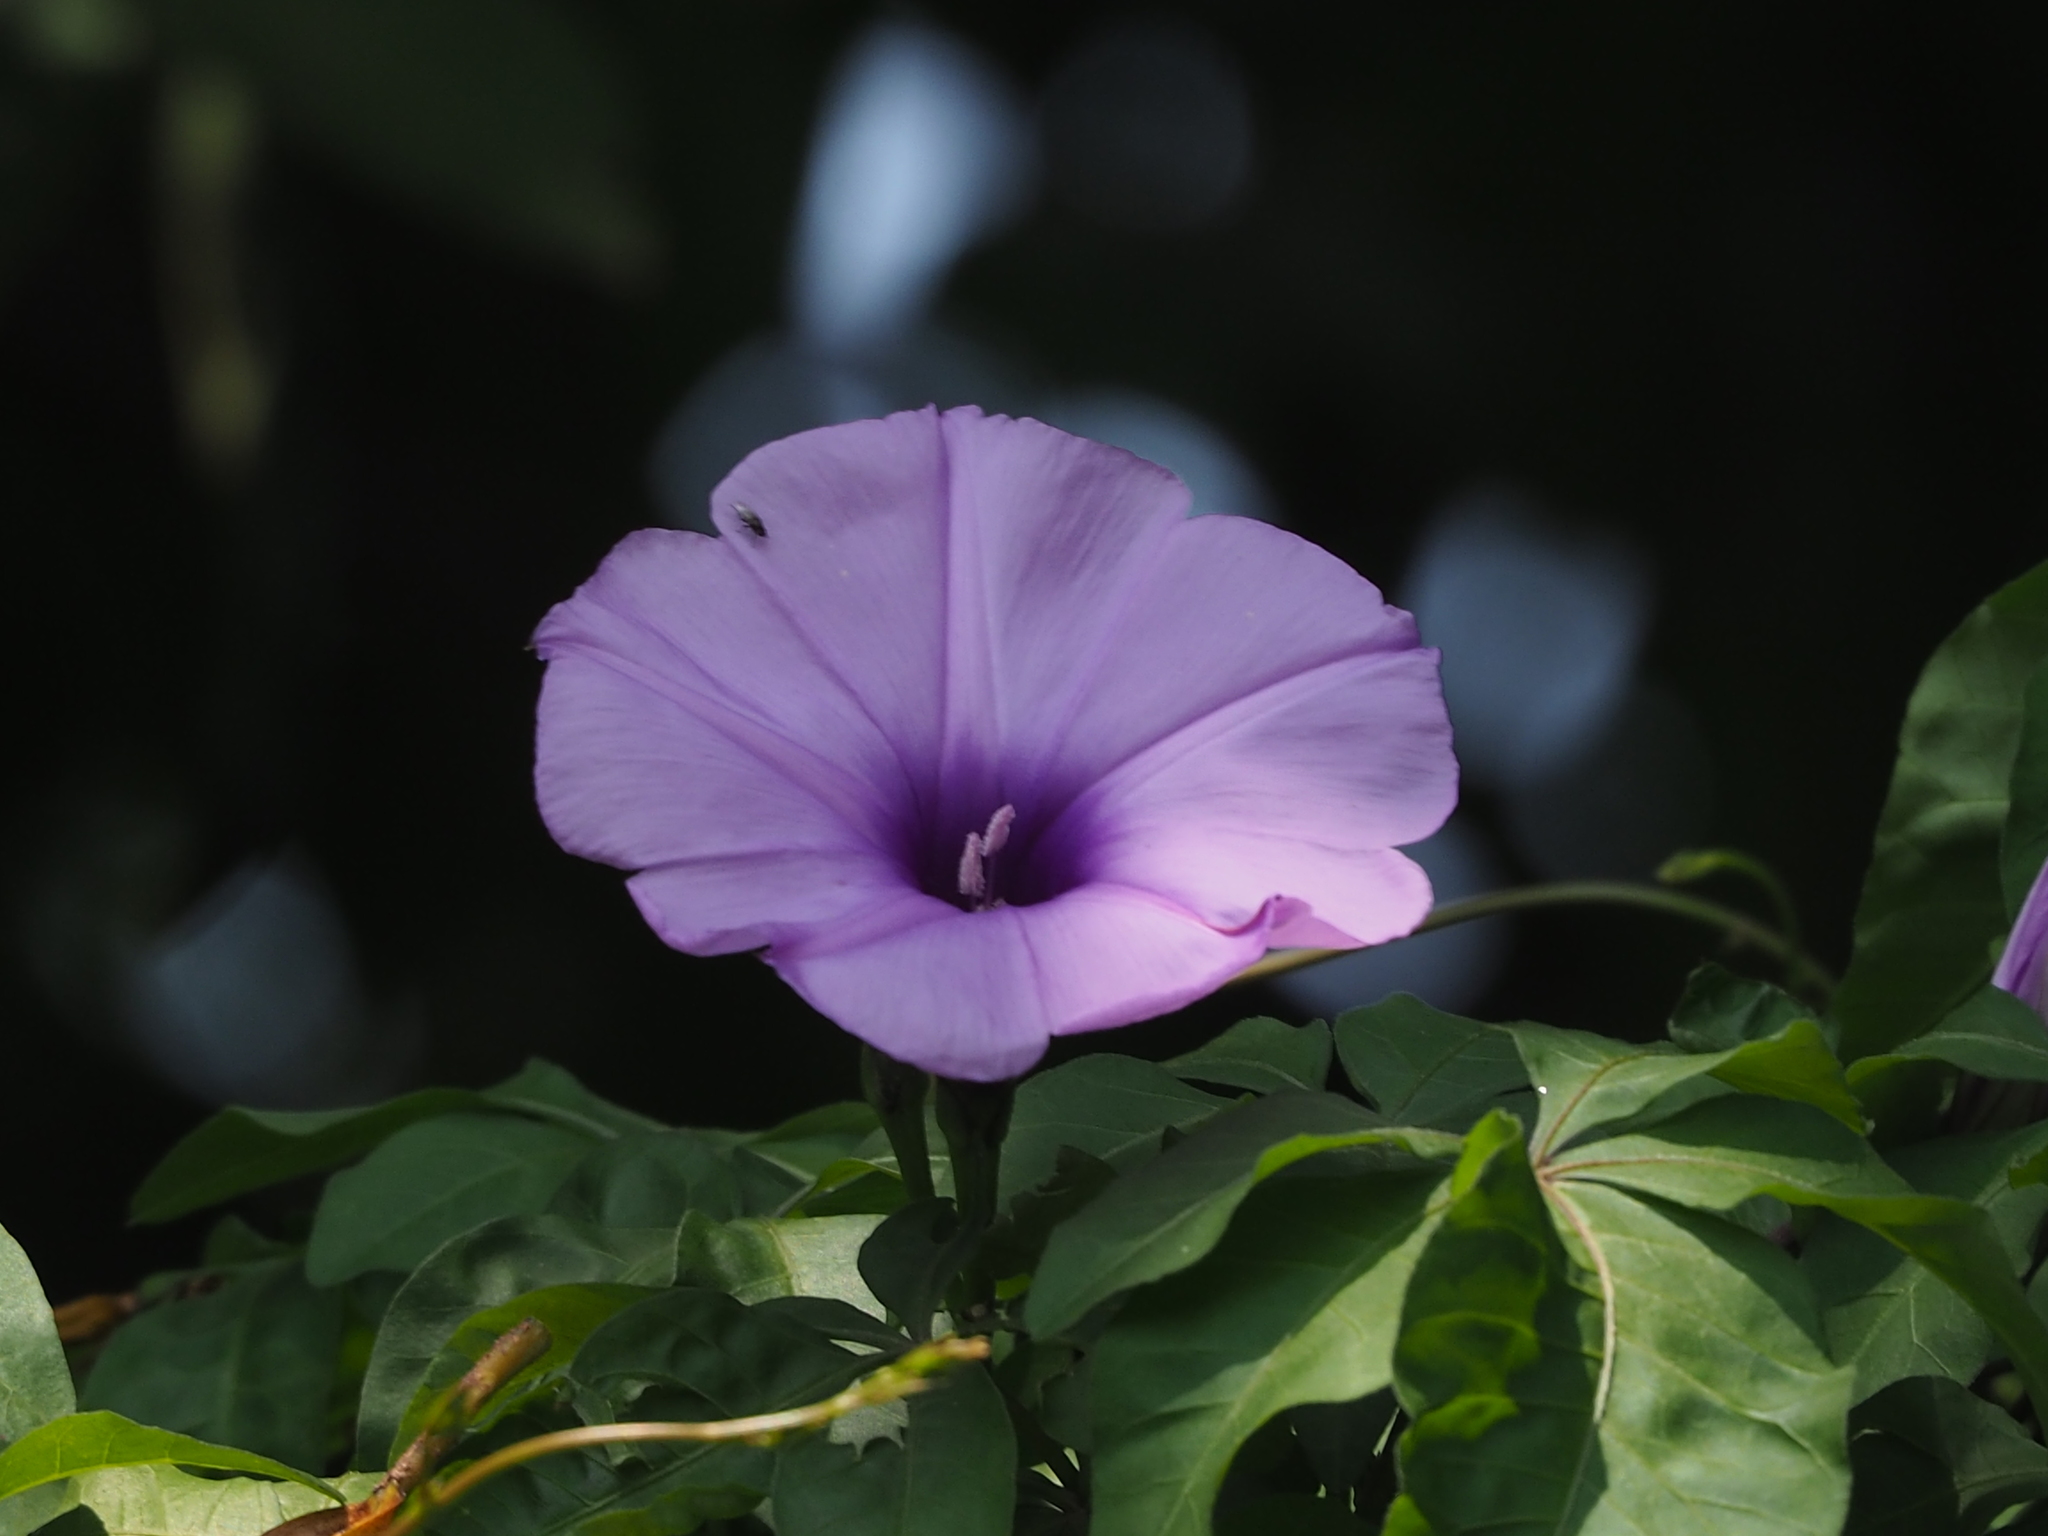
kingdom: Plantae
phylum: Tracheophyta
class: Magnoliopsida
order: Solanales
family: Convolvulaceae
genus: Ipomoea
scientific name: Ipomoea cairica
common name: Mile a minute vine
